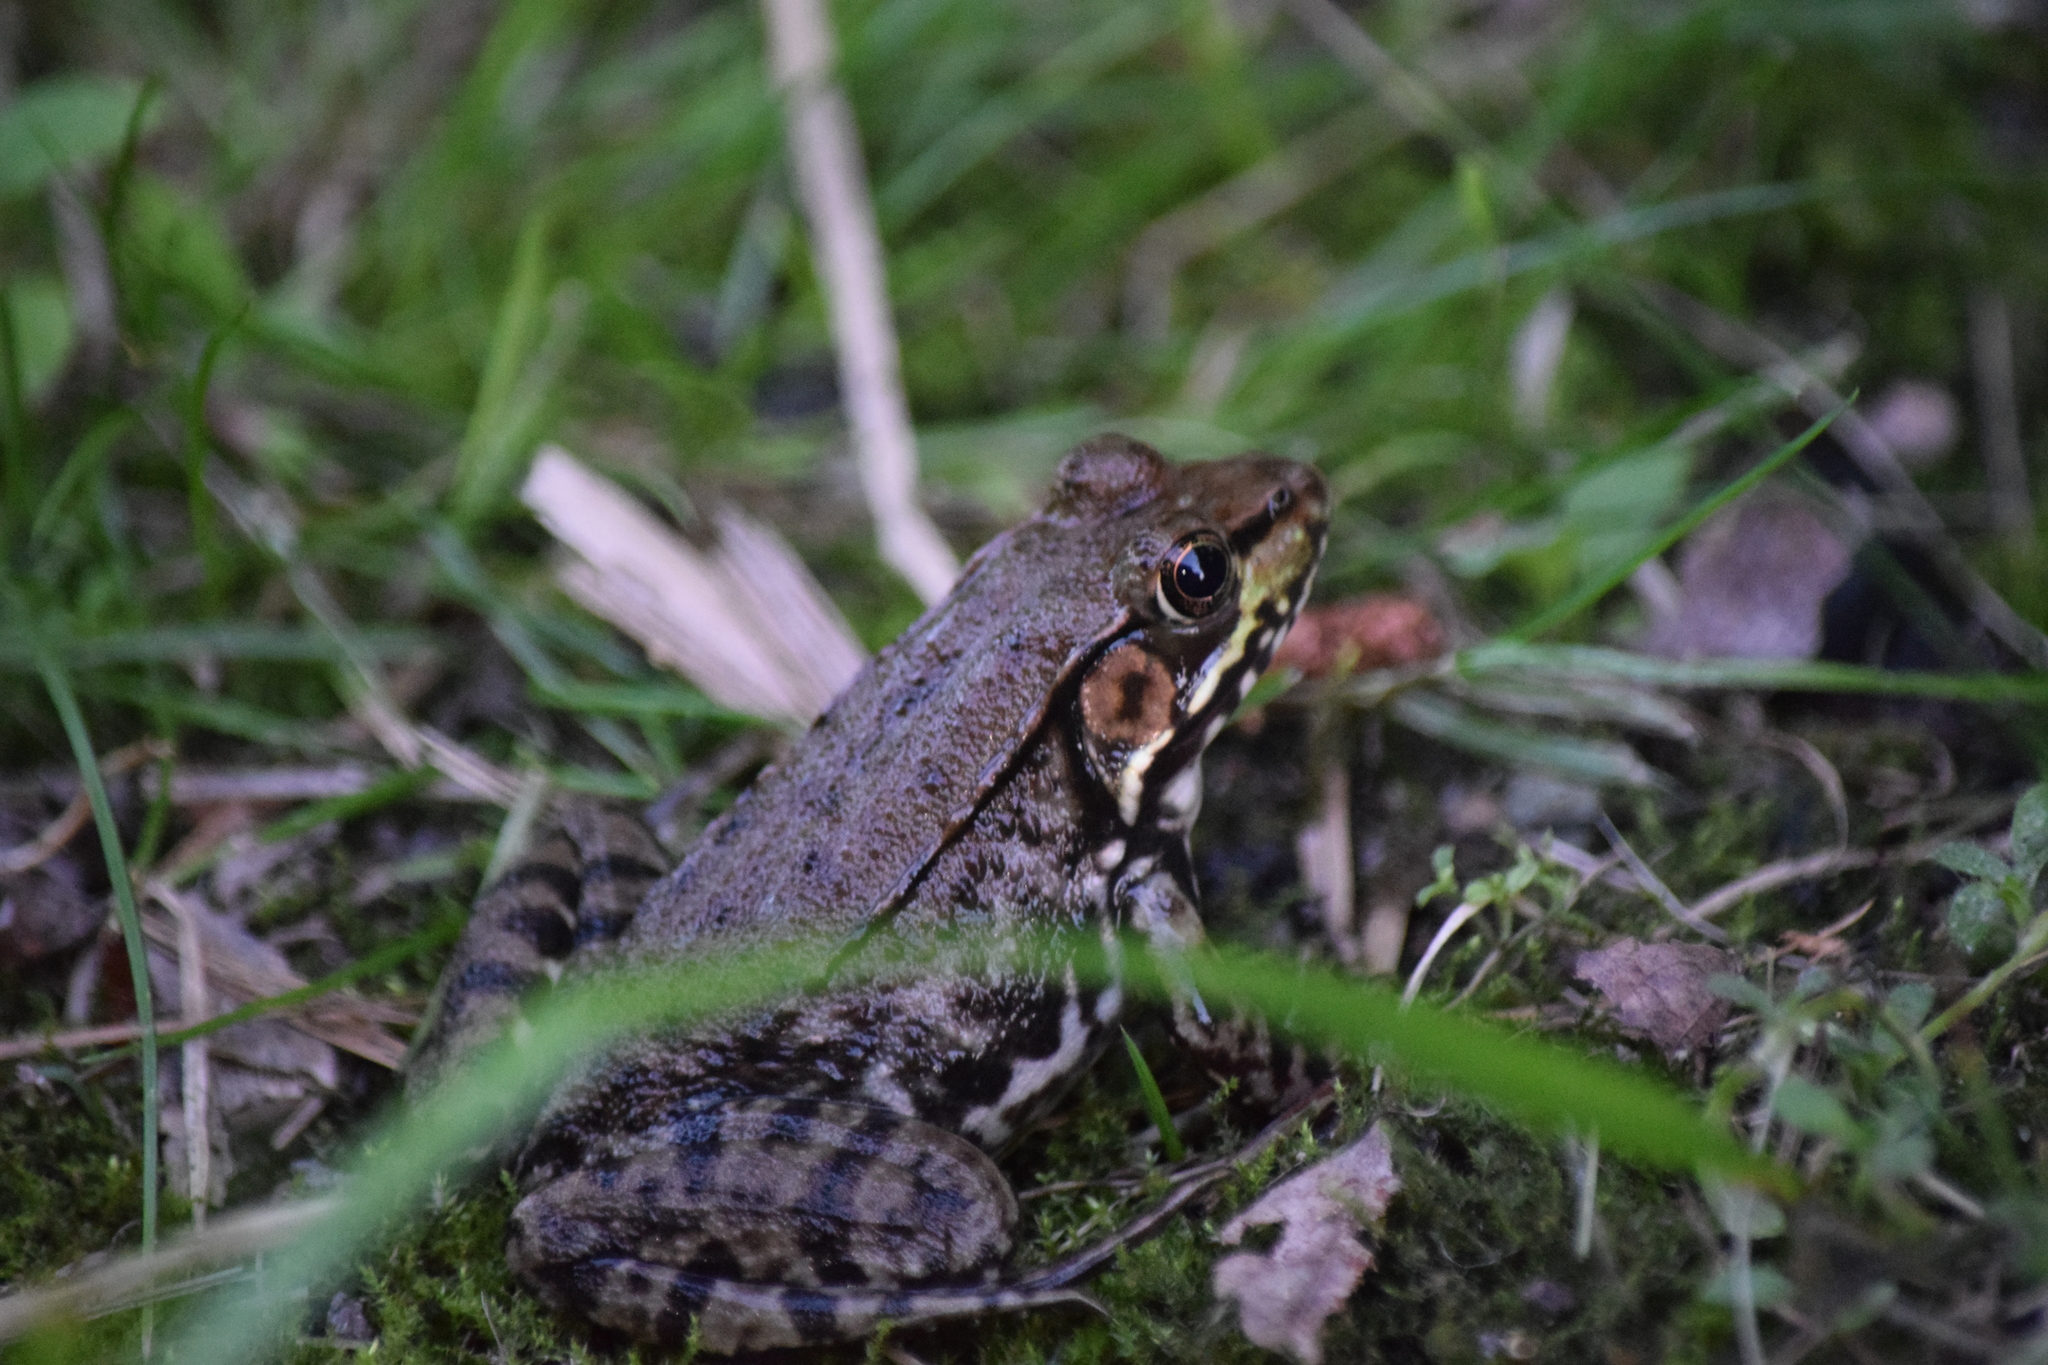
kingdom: Animalia
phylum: Chordata
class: Amphibia
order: Anura
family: Ranidae
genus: Lithobates
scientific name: Lithobates clamitans
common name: Green frog
